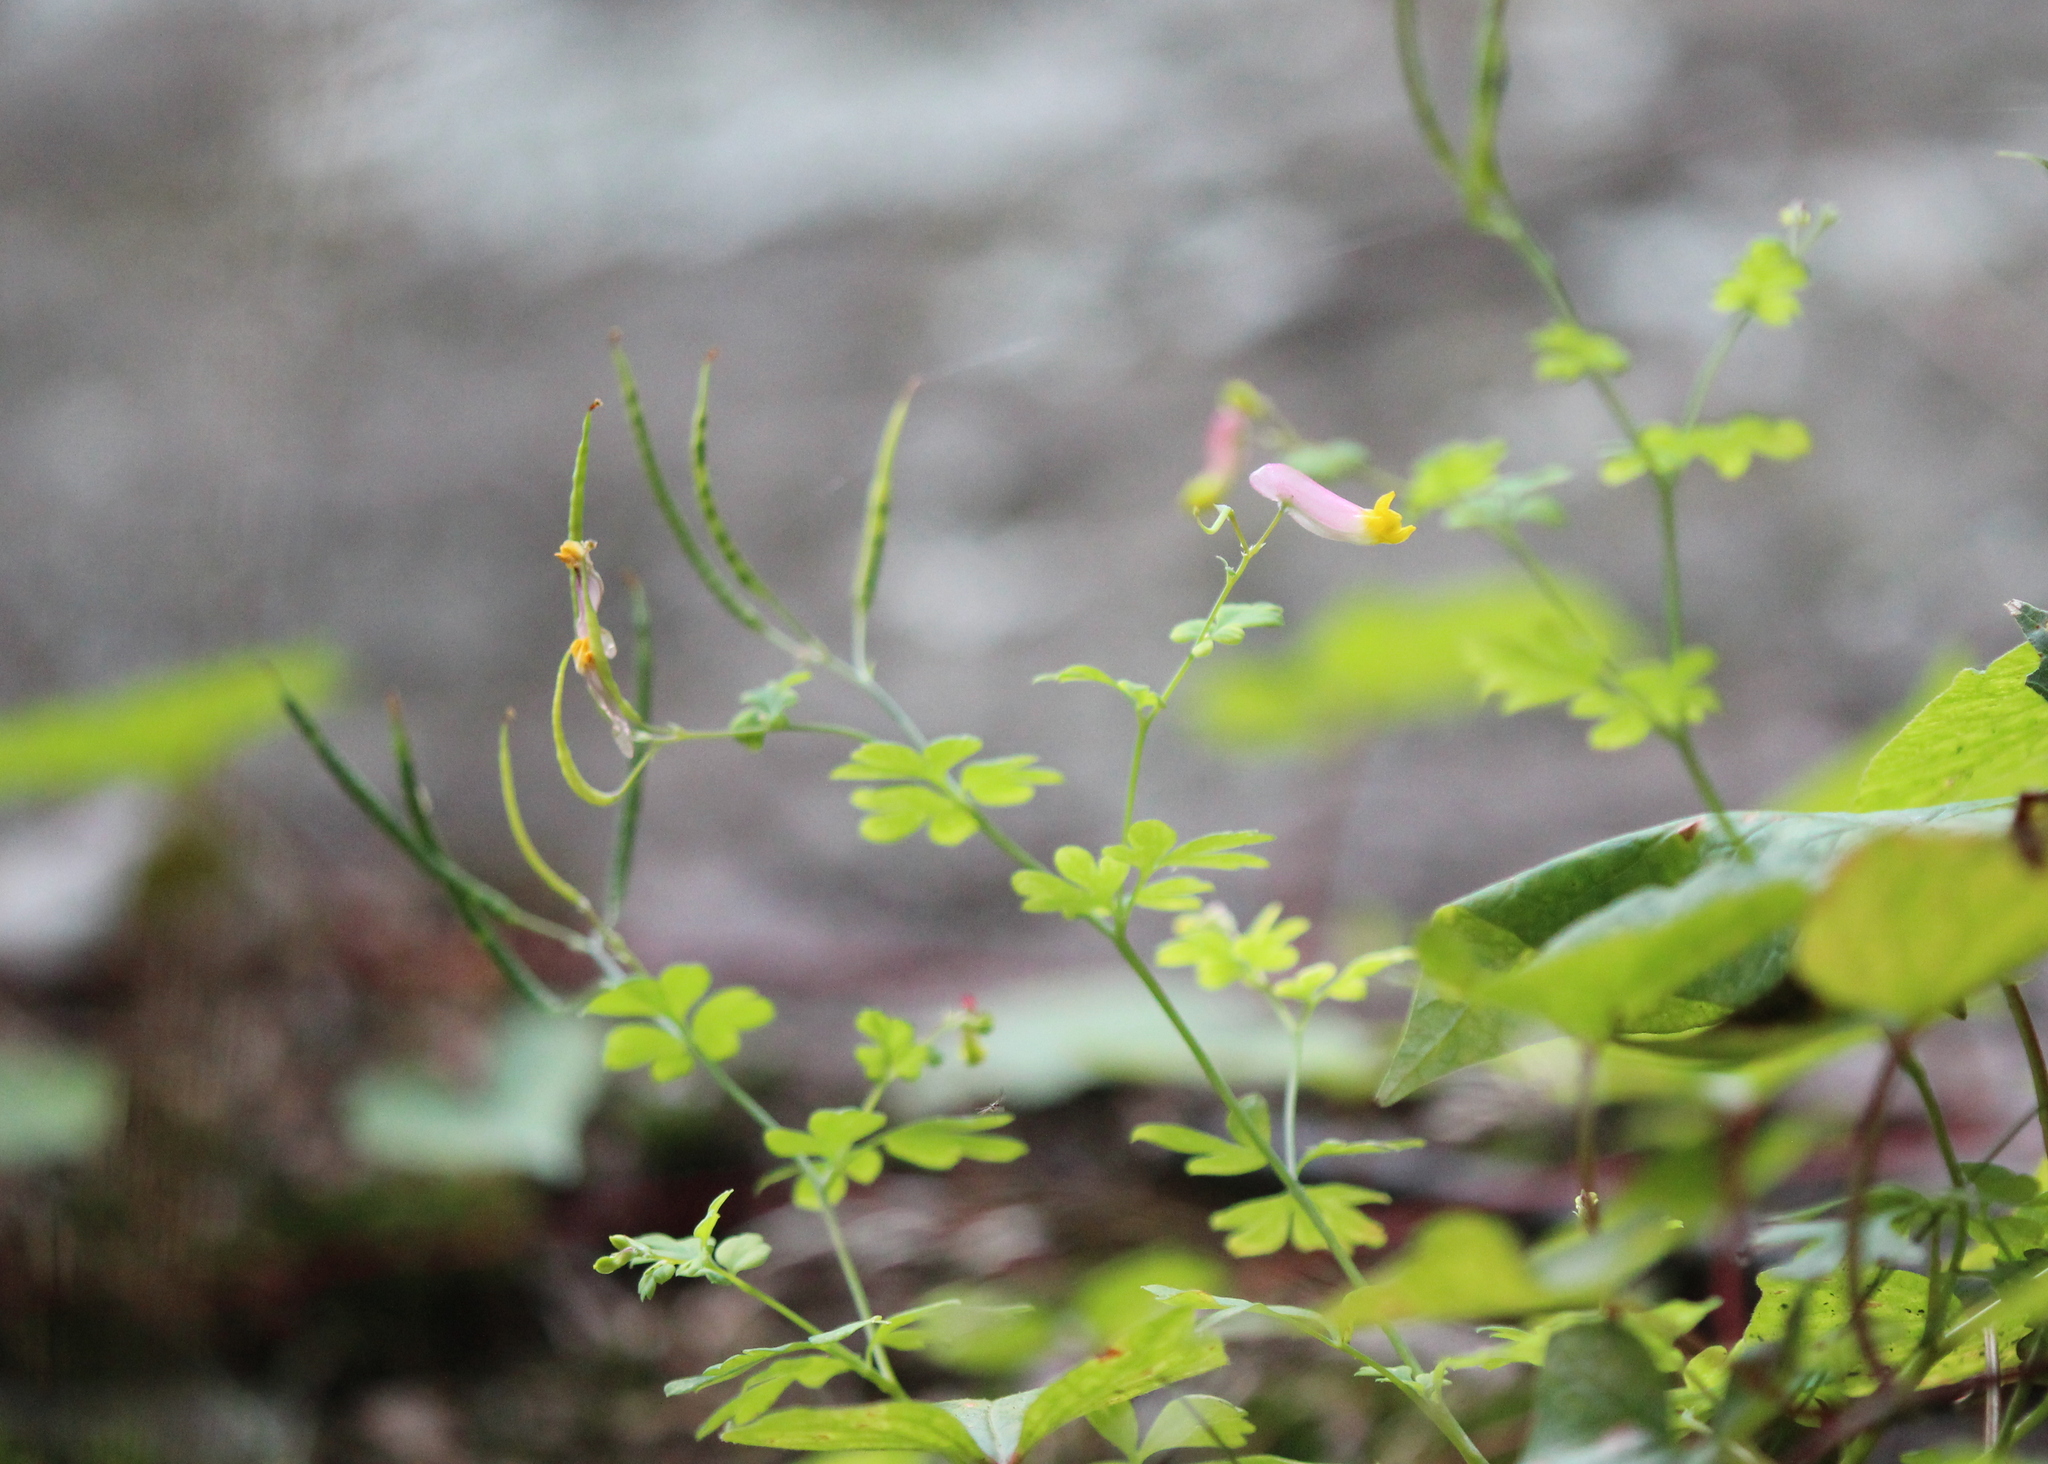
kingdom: Plantae
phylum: Tracheophyta
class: Magnoliopsida
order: Ranunculales
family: Papaveraceae
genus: Capnoides
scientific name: Capnoides sempervirens
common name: Rock harlequin
